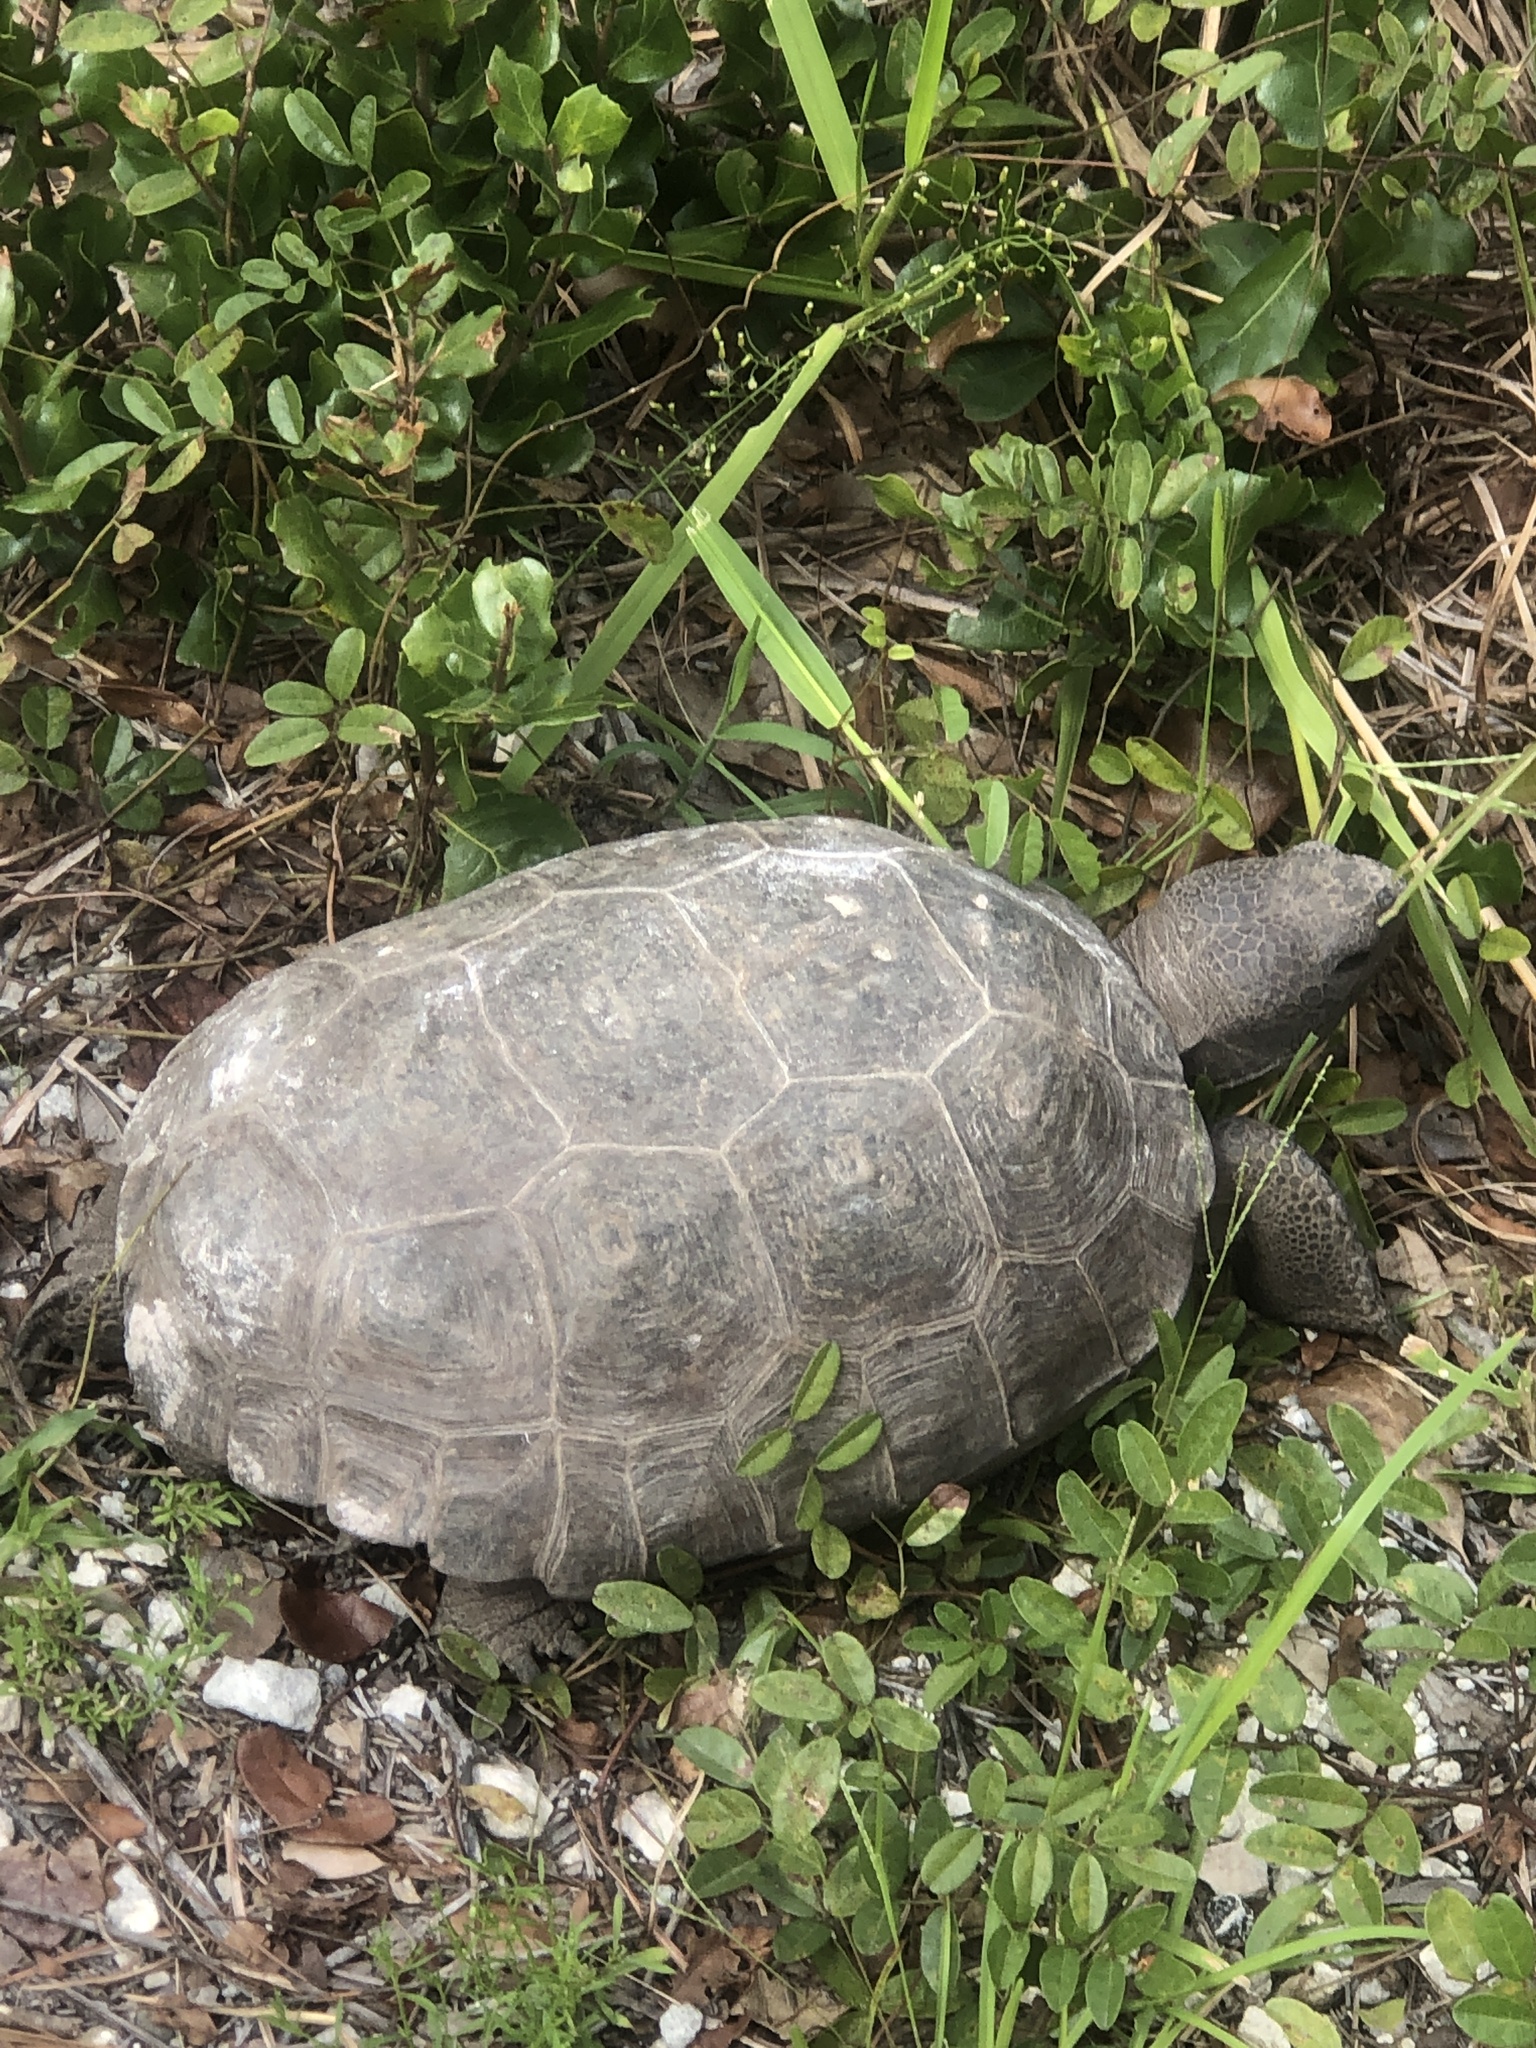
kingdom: Animalia
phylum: Chordata
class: Testudines
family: Testudinidae
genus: Gopherus
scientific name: Gopherus polyphemus
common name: Florida gopher tortoise
